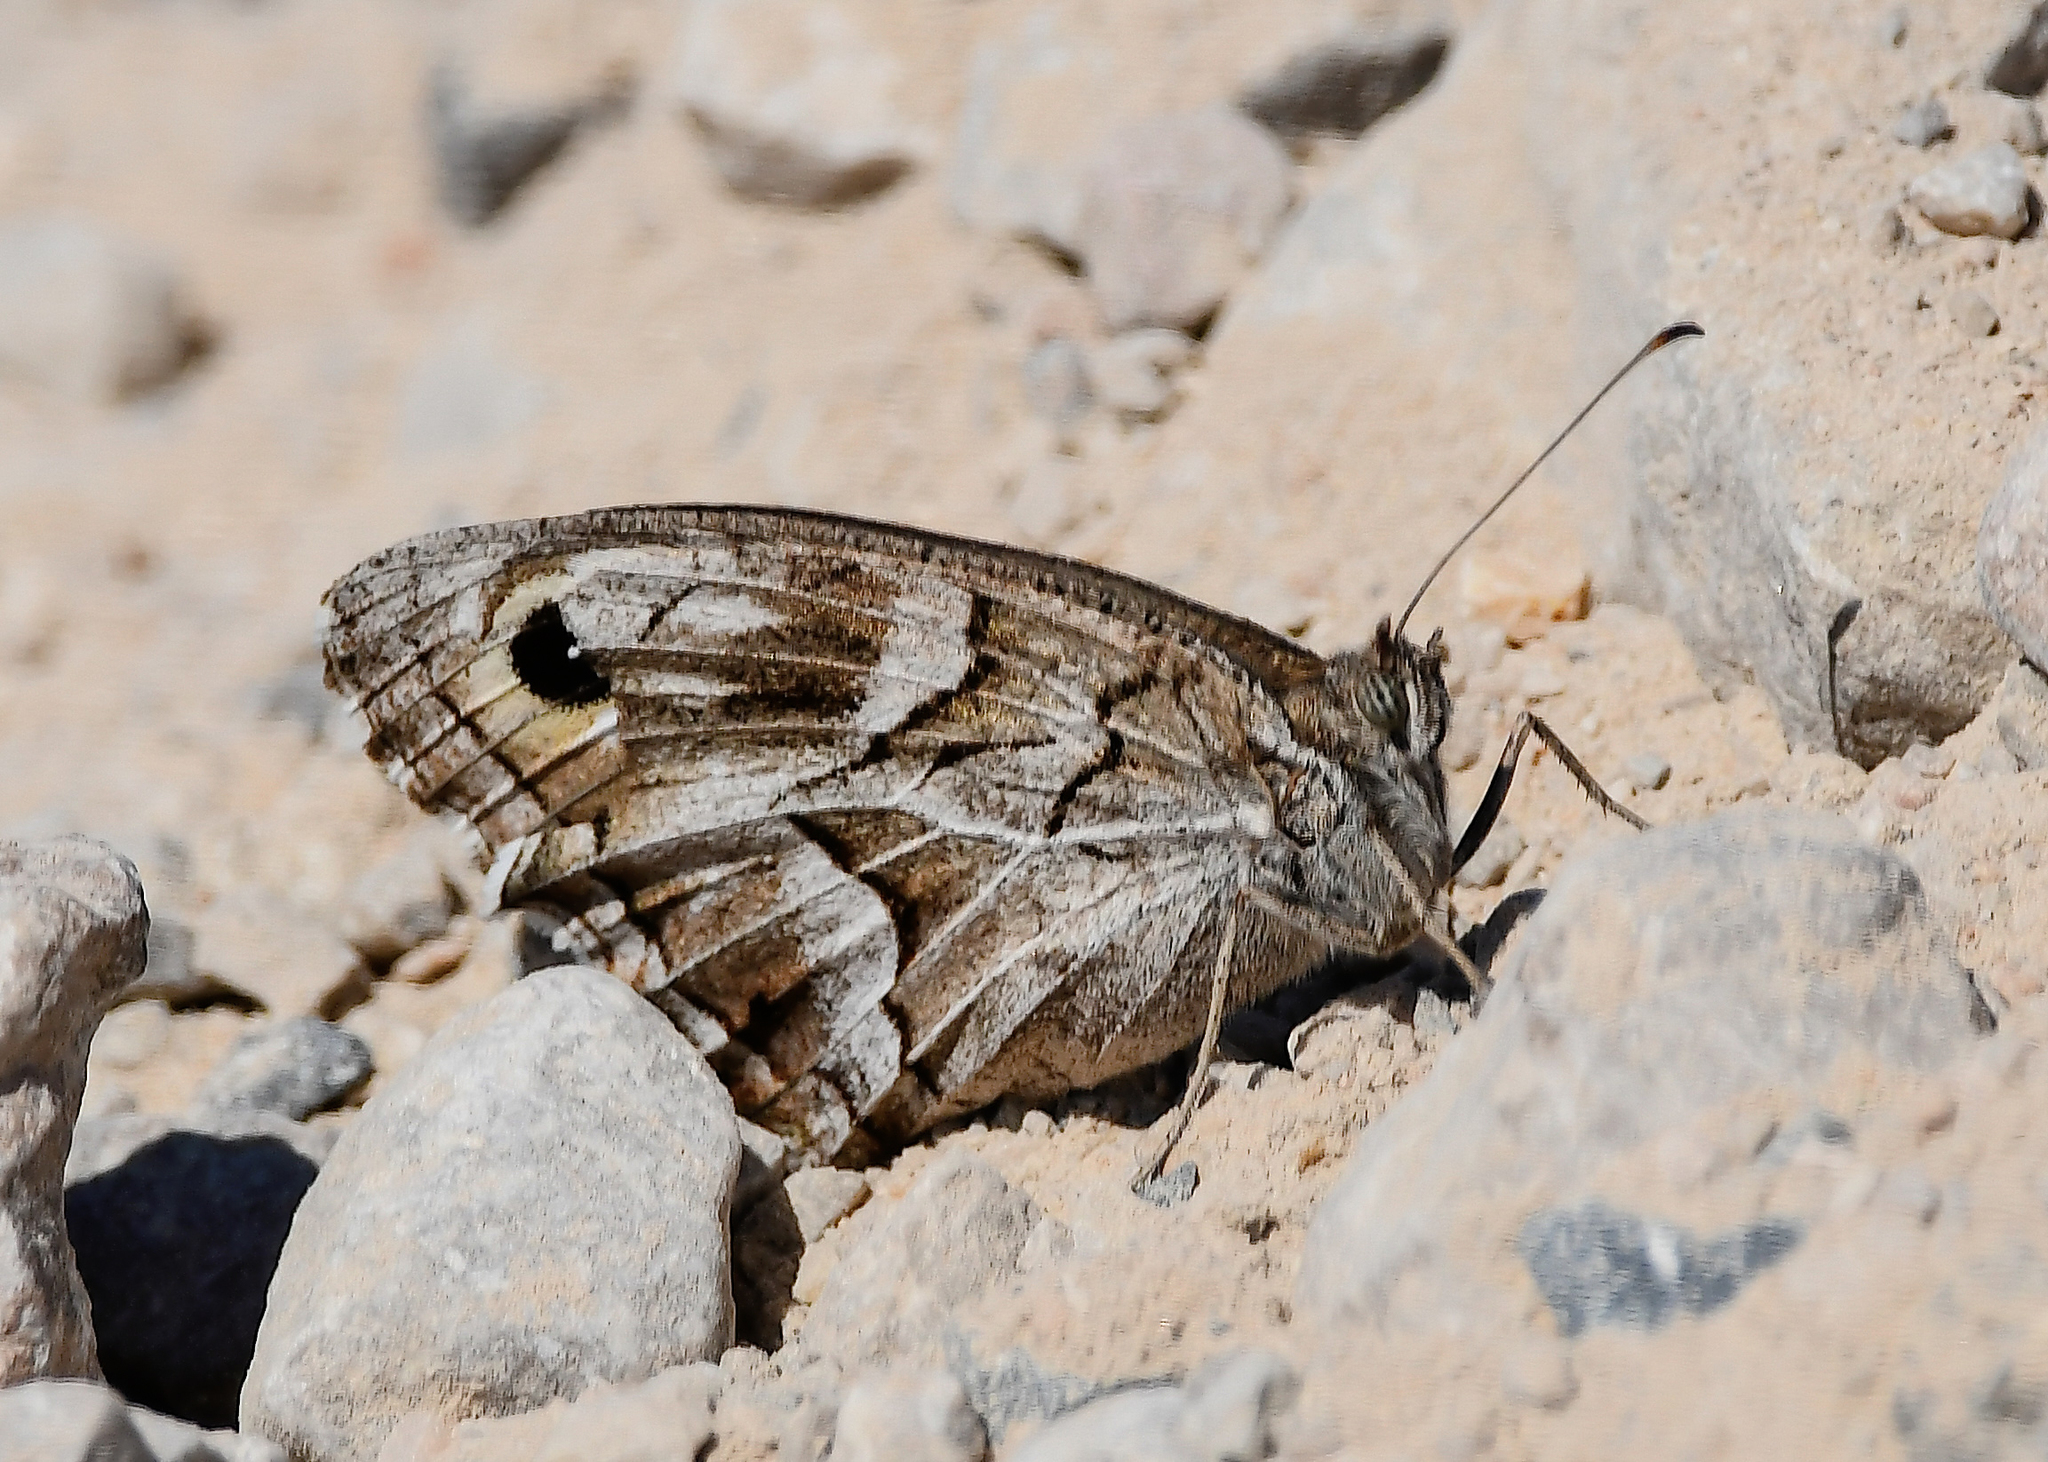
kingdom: Animalia
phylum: Arthropoda
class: Insecta
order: Lepidoptera
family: Nymphalidae
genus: Hipparchia
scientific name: Hipparchia fidia
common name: Striped grayling
